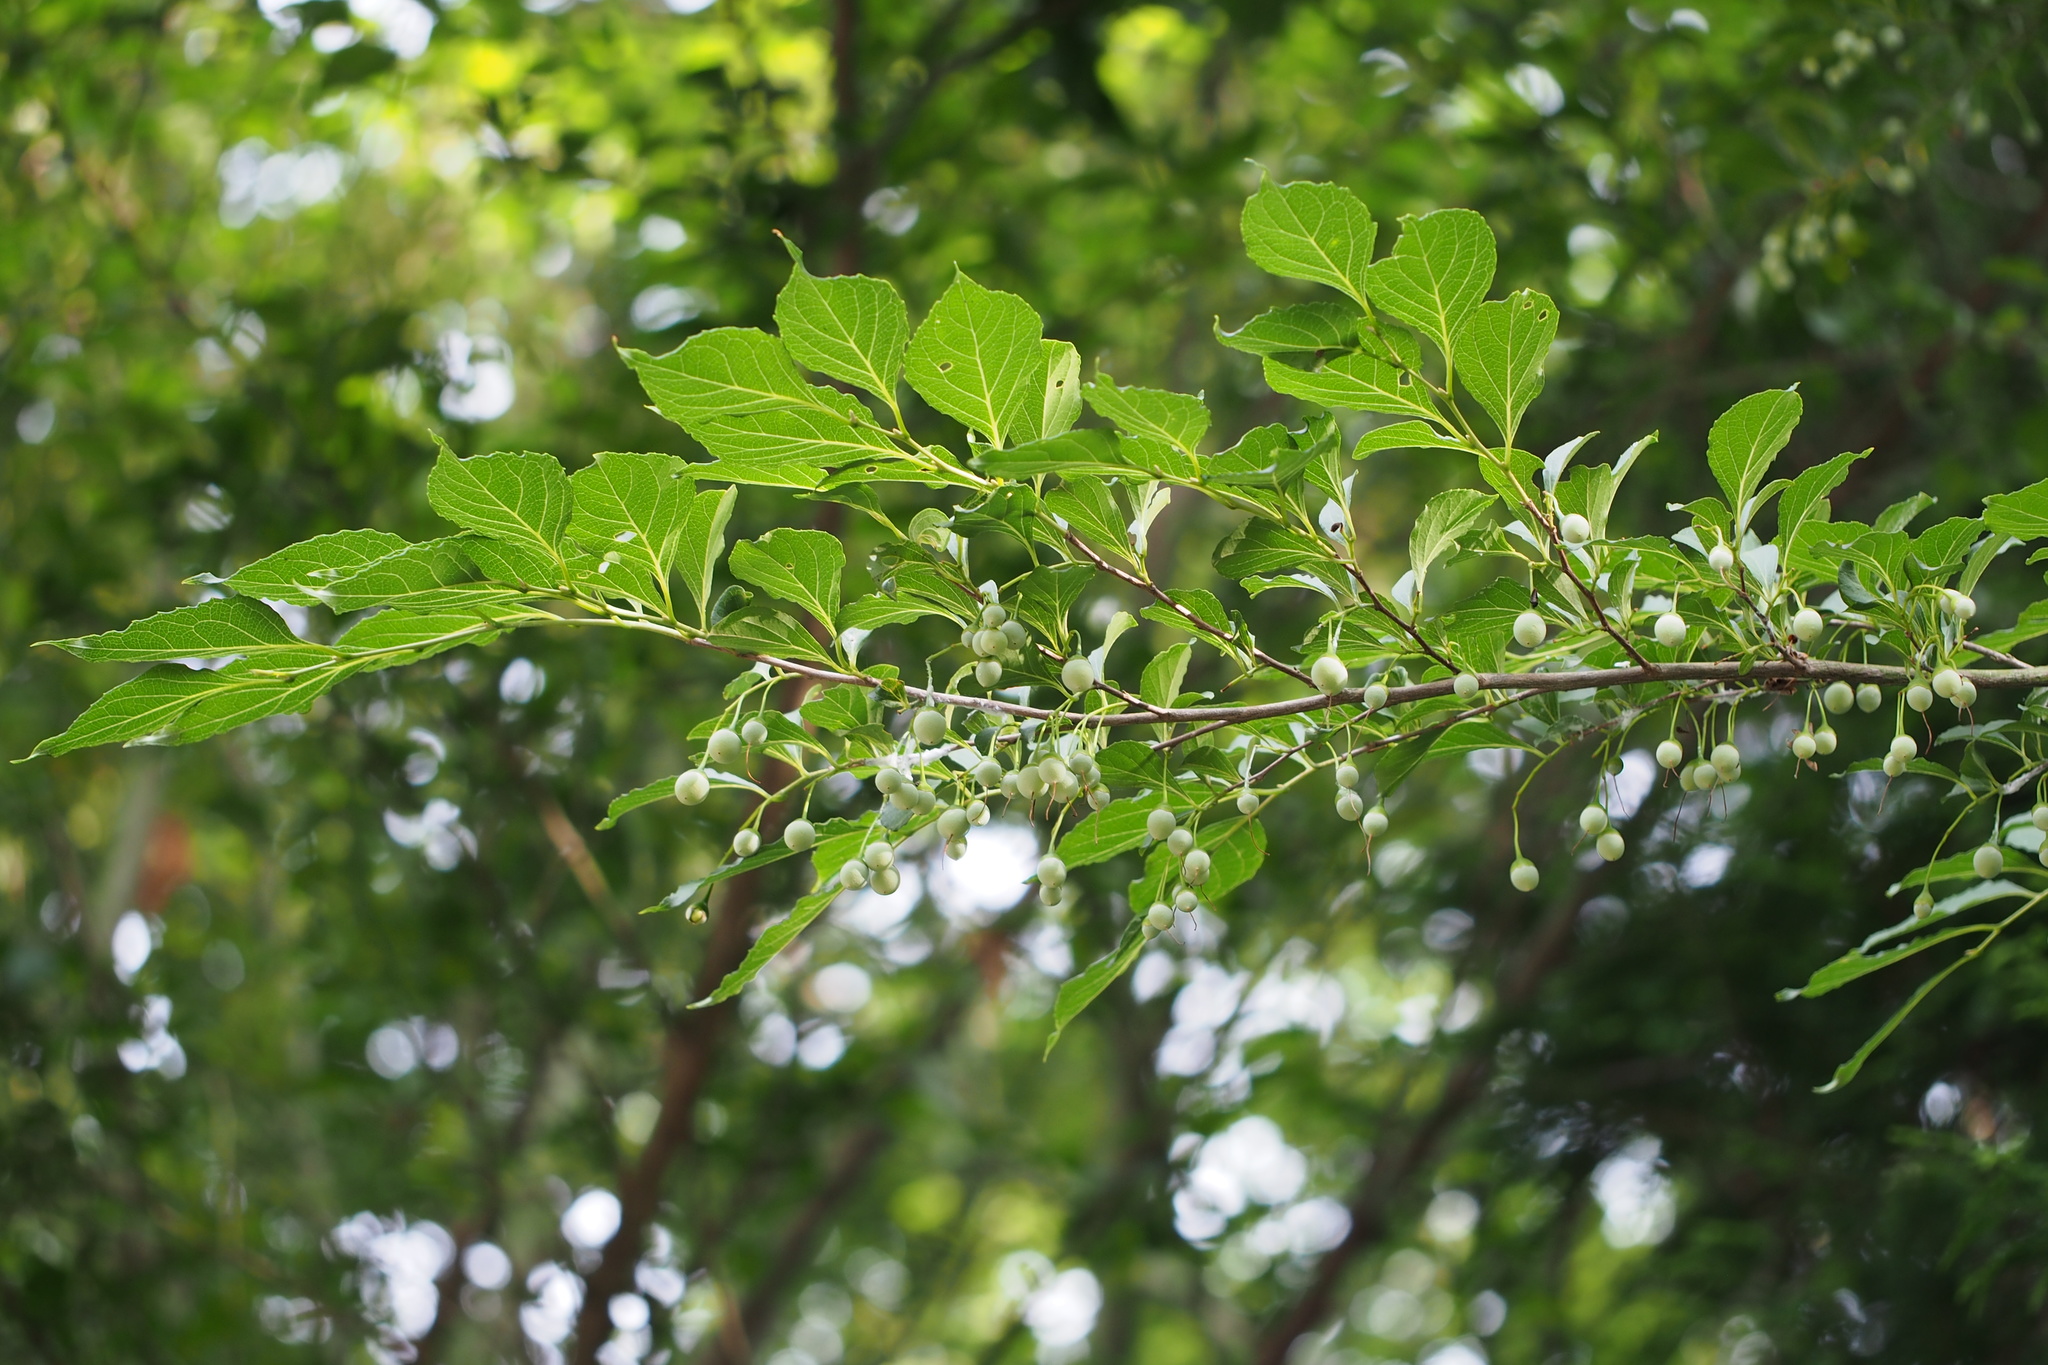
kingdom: Plantae
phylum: Tracheophyta
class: Magnoliopsida
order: Ericales
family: Styracaceae
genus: Styrax
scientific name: Styrax japonicus
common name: Japanese snowbell
